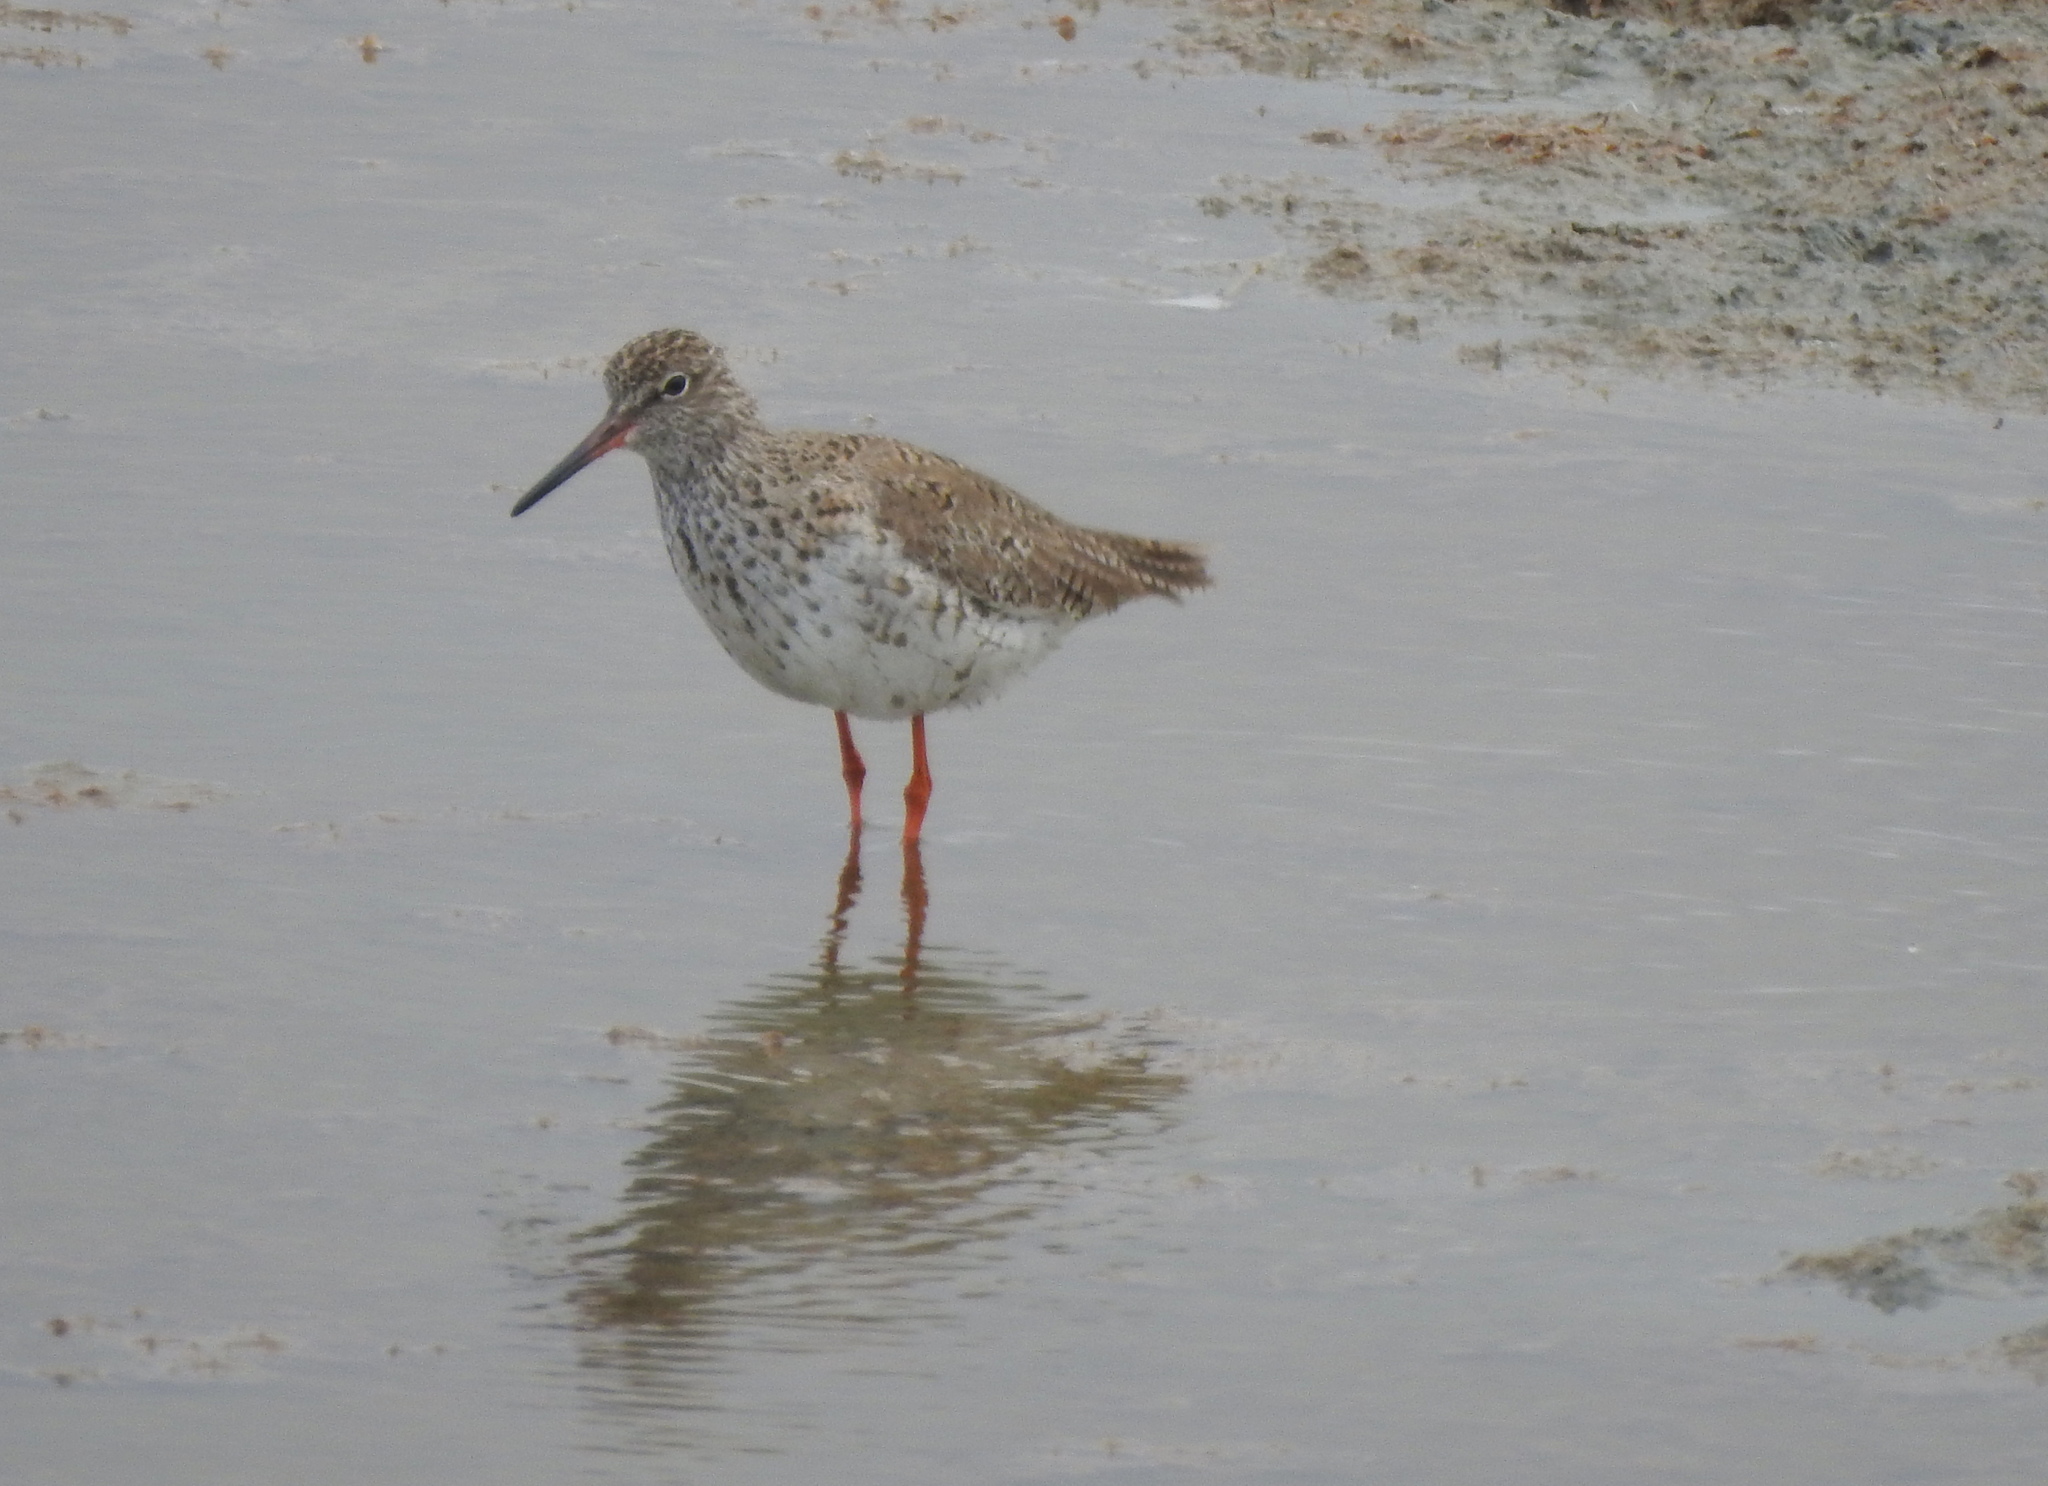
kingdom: Animalia
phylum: Chordata
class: Aves
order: Charadriiformes
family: Scolopacidae
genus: Tringa
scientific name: Tringa totanus
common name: Common redshank
